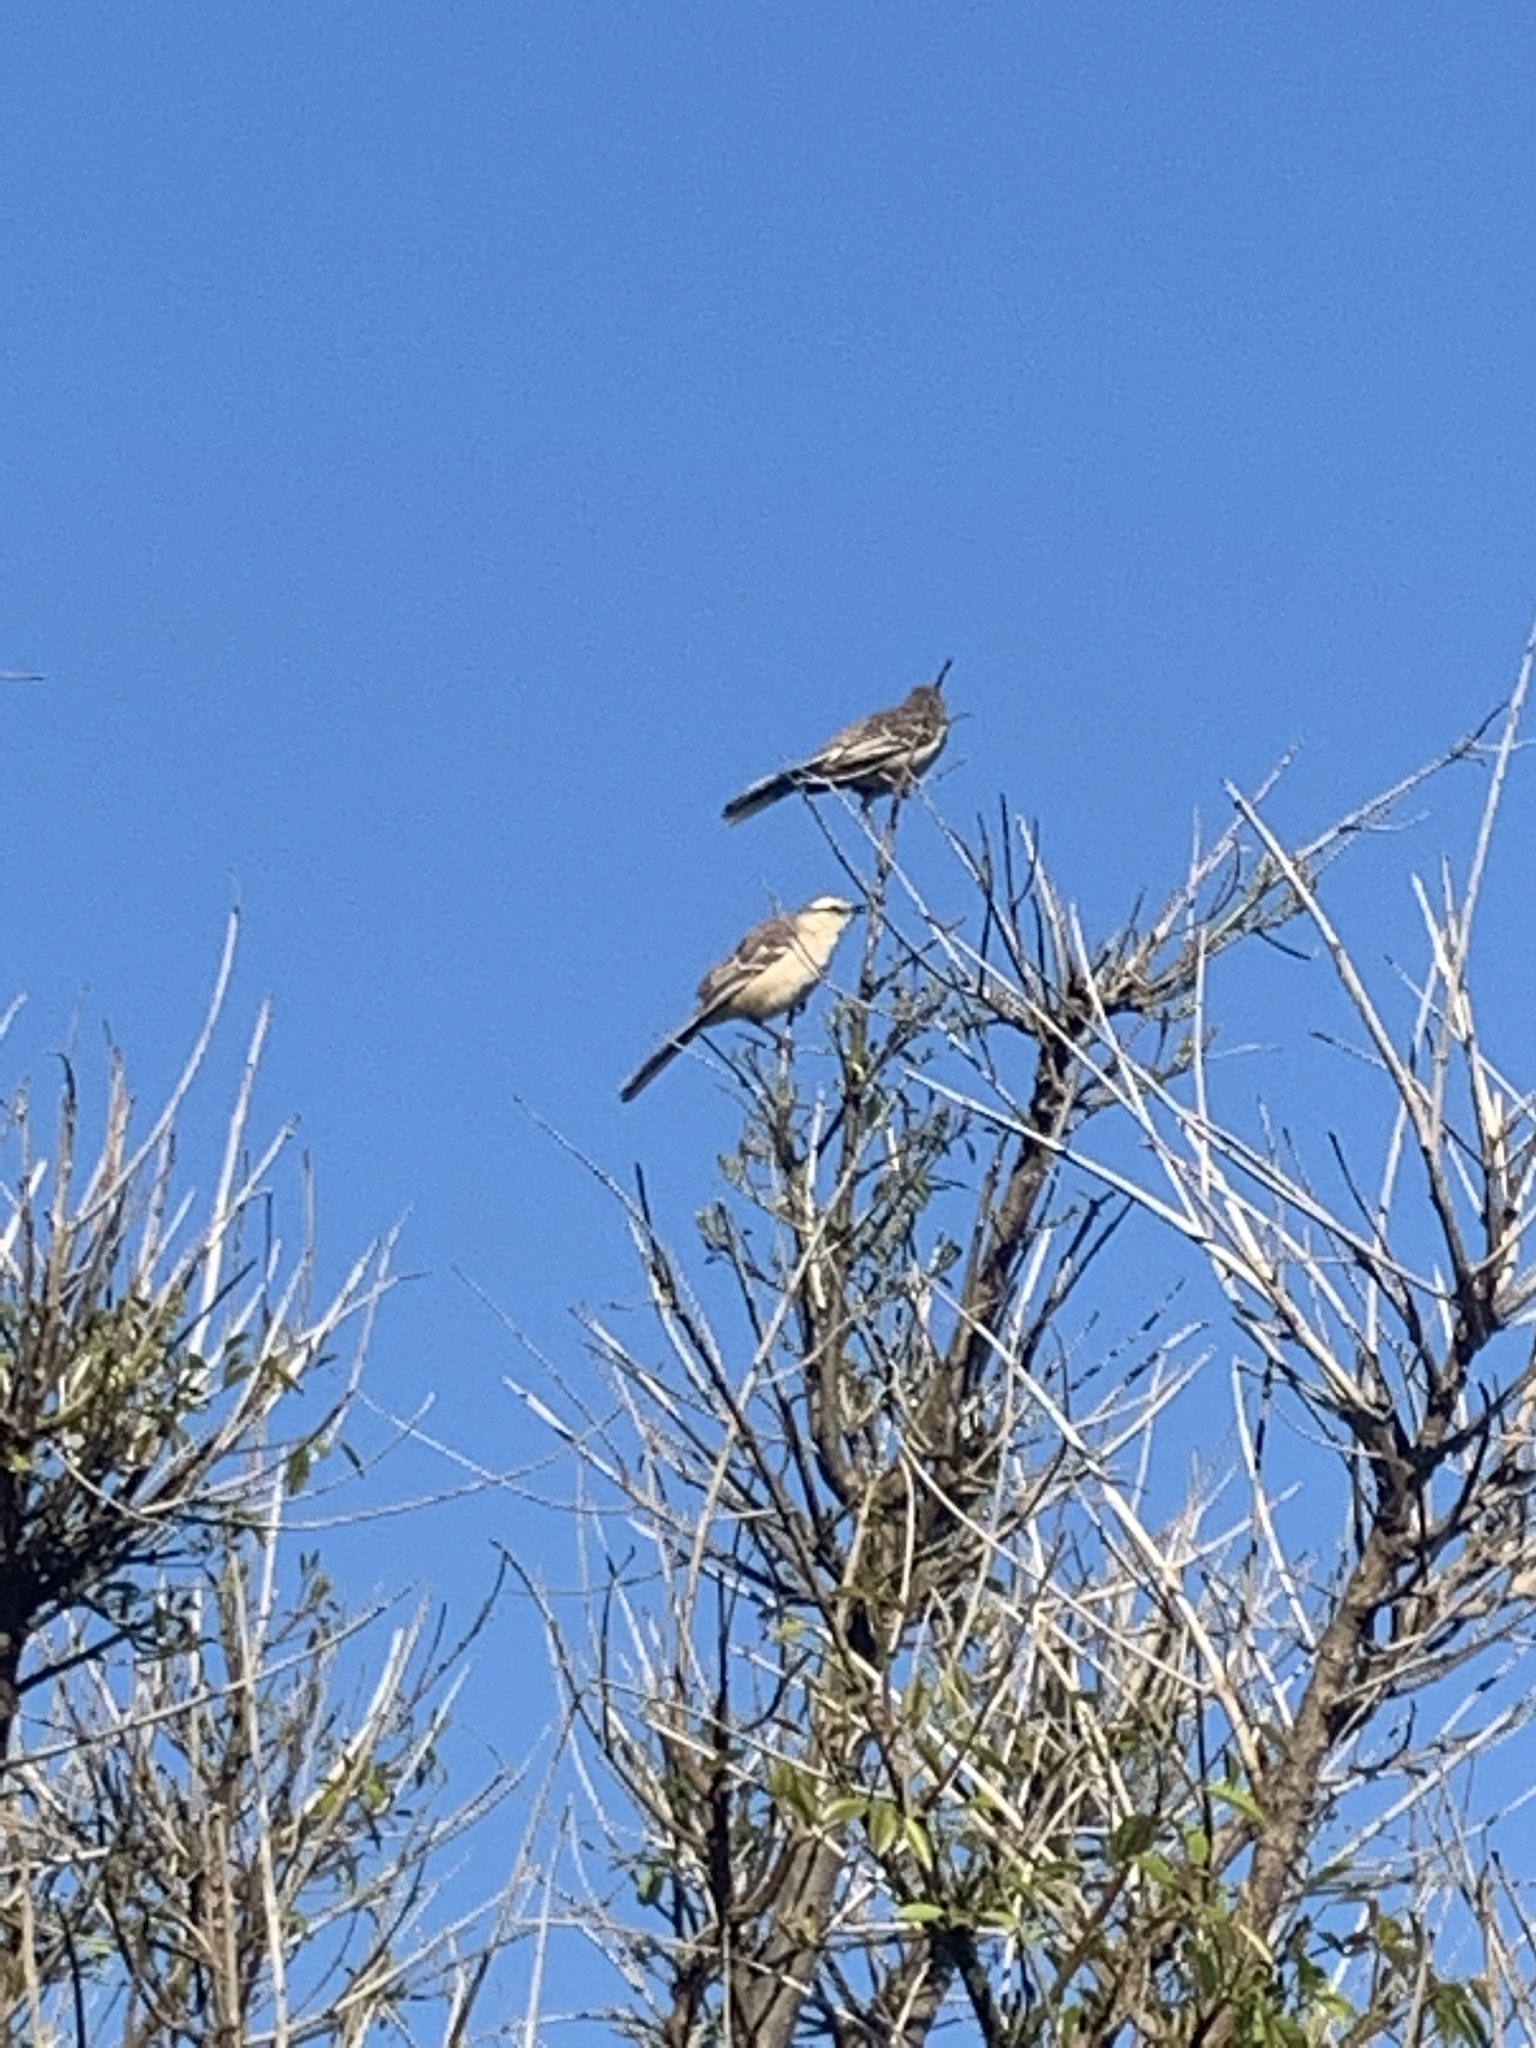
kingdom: Animalia
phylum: Chordata
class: Aves
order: Passeriformes
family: Mimidae
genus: Mimus
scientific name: Mimus saturninus
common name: Chalk-browed mockingbird
